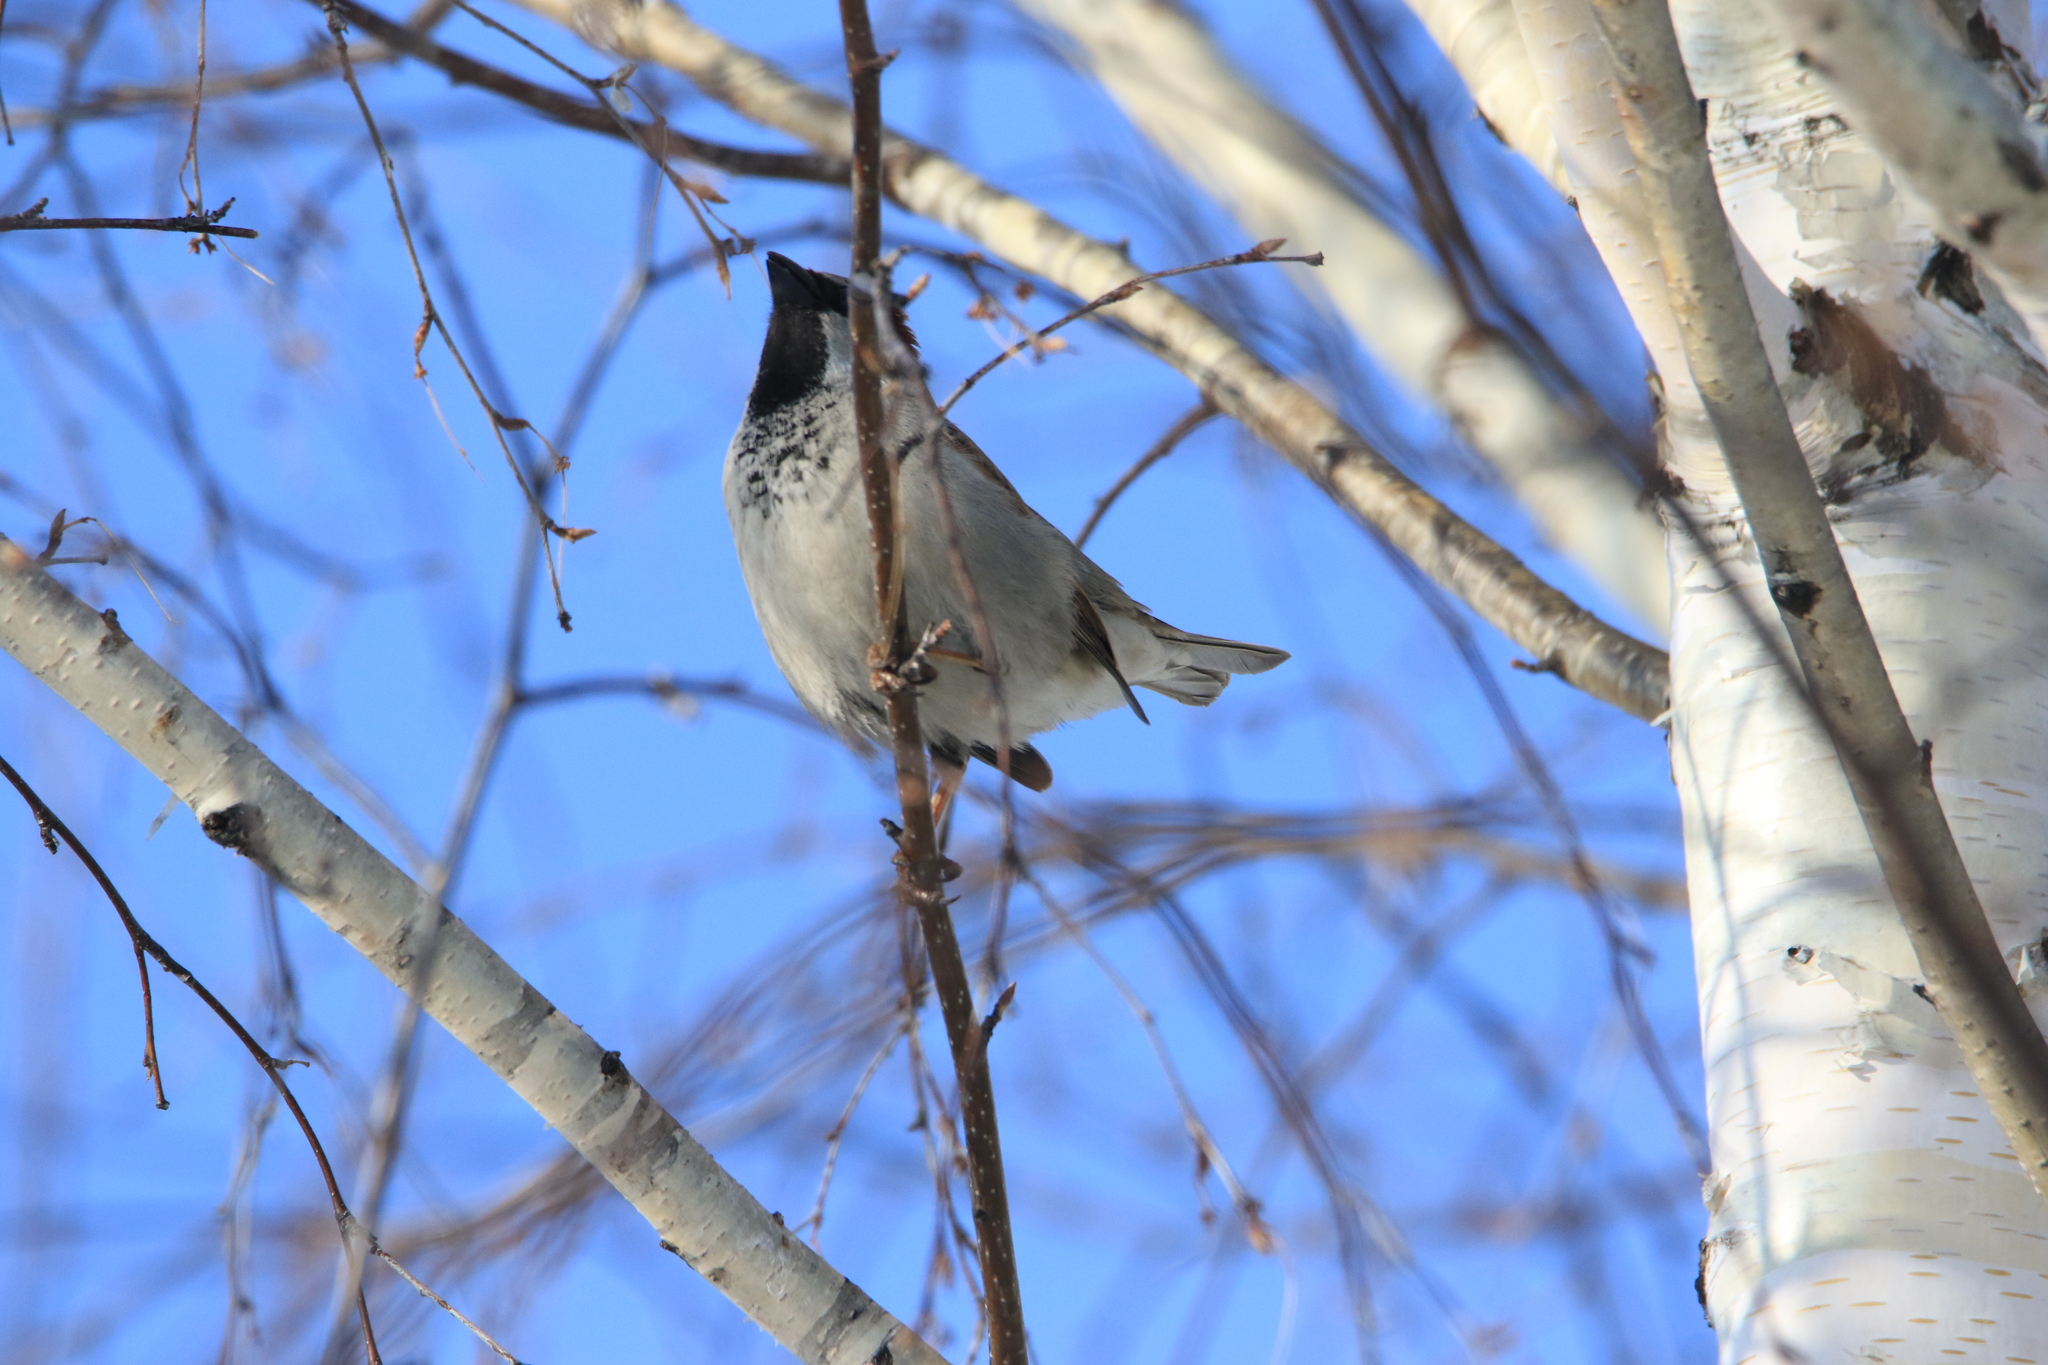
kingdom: Animalia
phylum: Chordata
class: Aves
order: Passeriformes
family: Passeridae
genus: Passer
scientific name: Passer domesticus
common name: House sparrow
